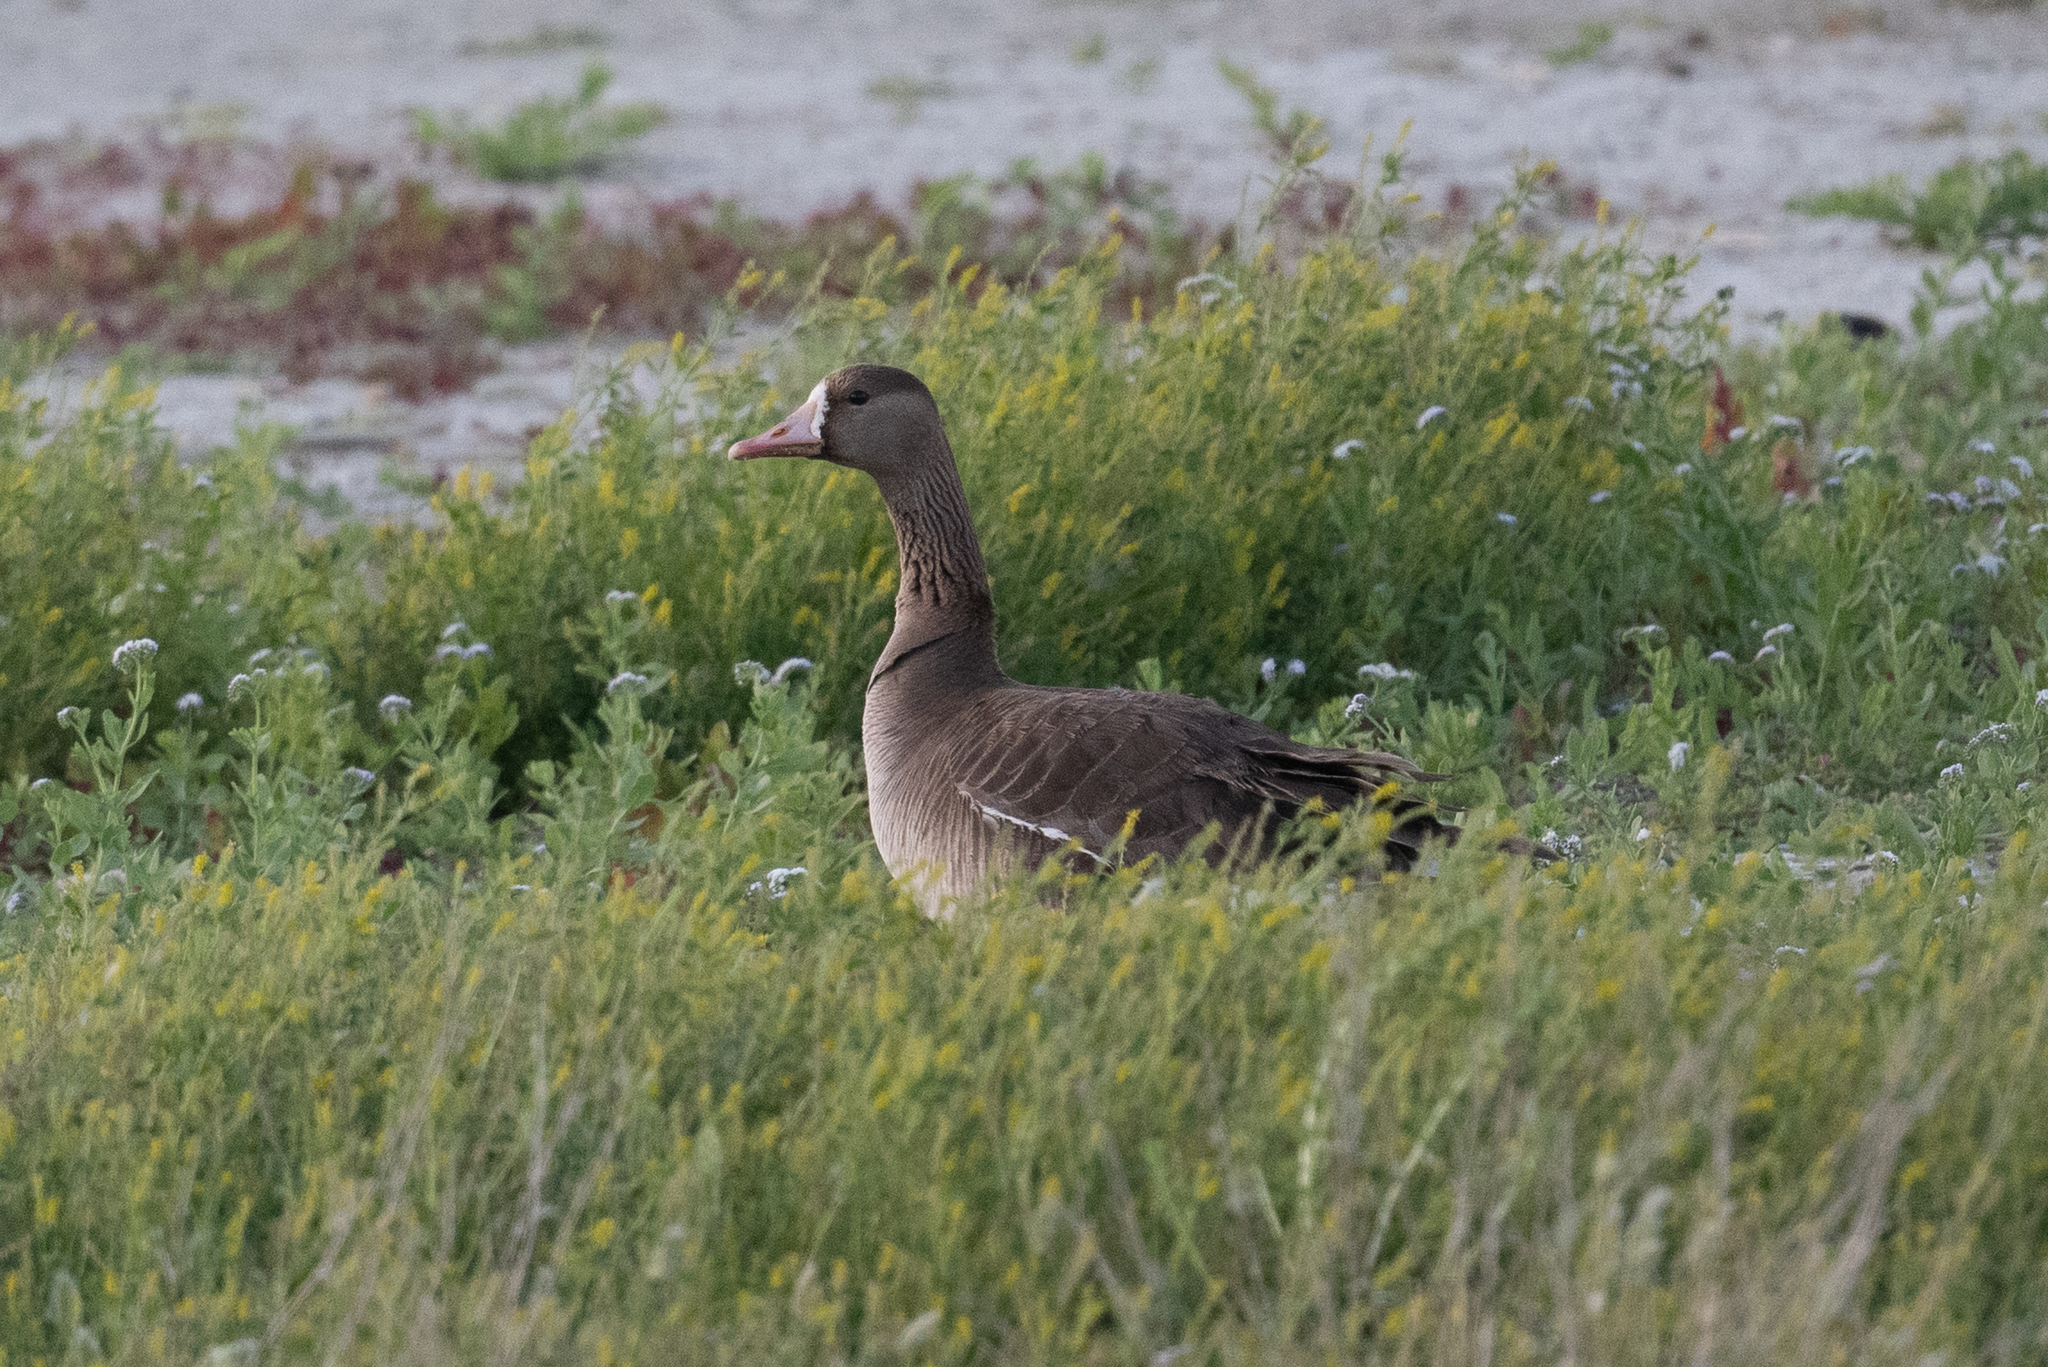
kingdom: Animalia
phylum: Chordata
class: Aves
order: Anseriformes
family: Anatidae
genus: Anser
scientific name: Anser albifrons
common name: Greater white-fronted goose
